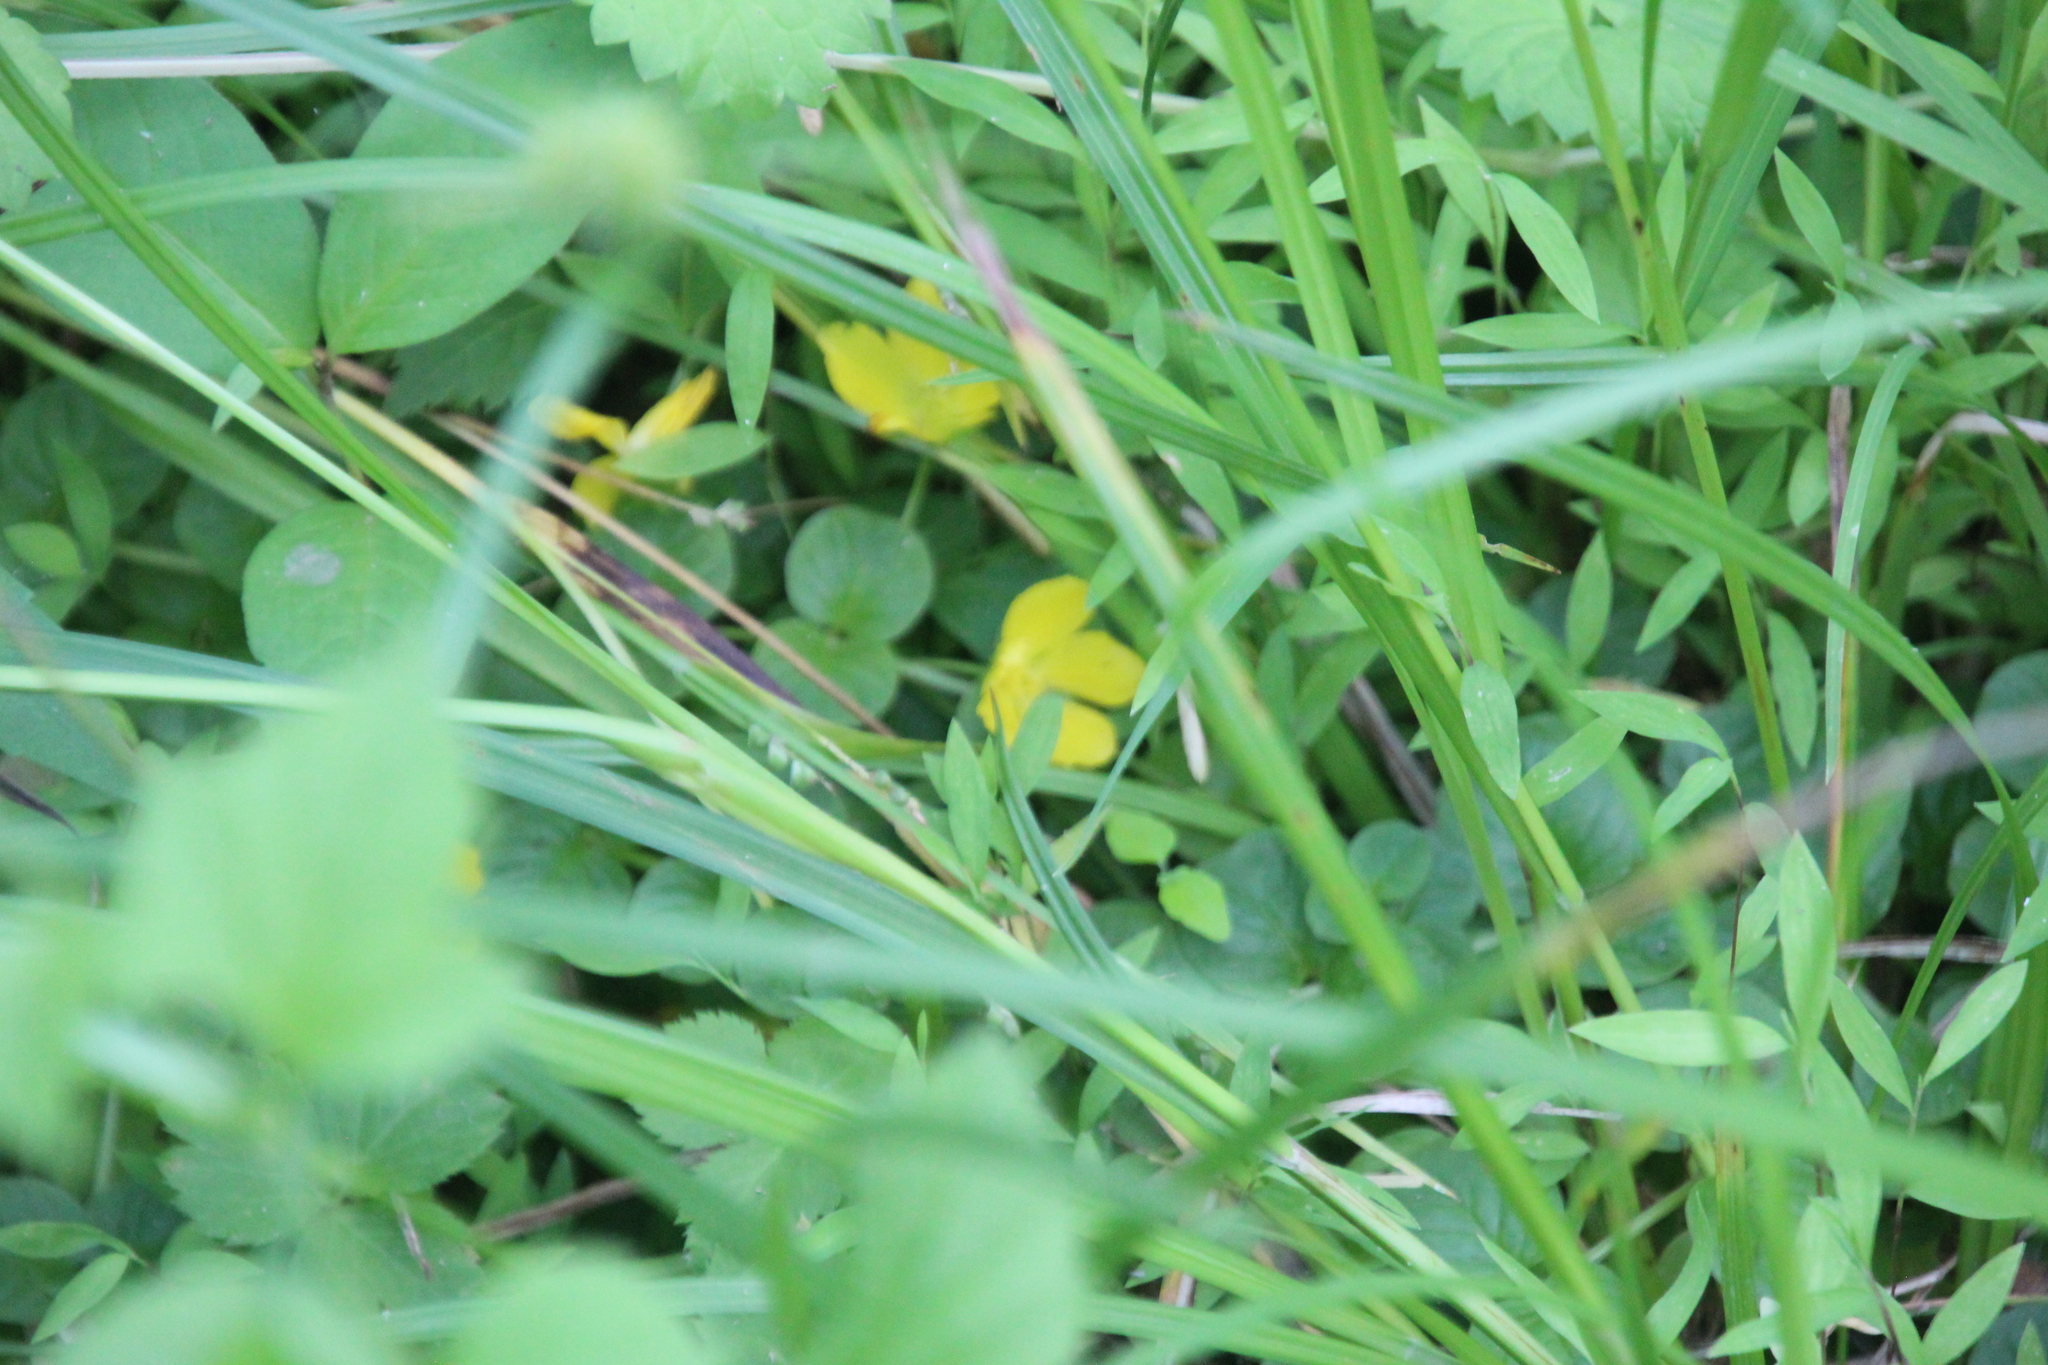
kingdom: Plantae
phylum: Tracheophyta
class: Magnoliopsida
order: Ericales
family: Primulaceae
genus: Lysimachia
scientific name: Lysimachia nummularia
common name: Moneywort
